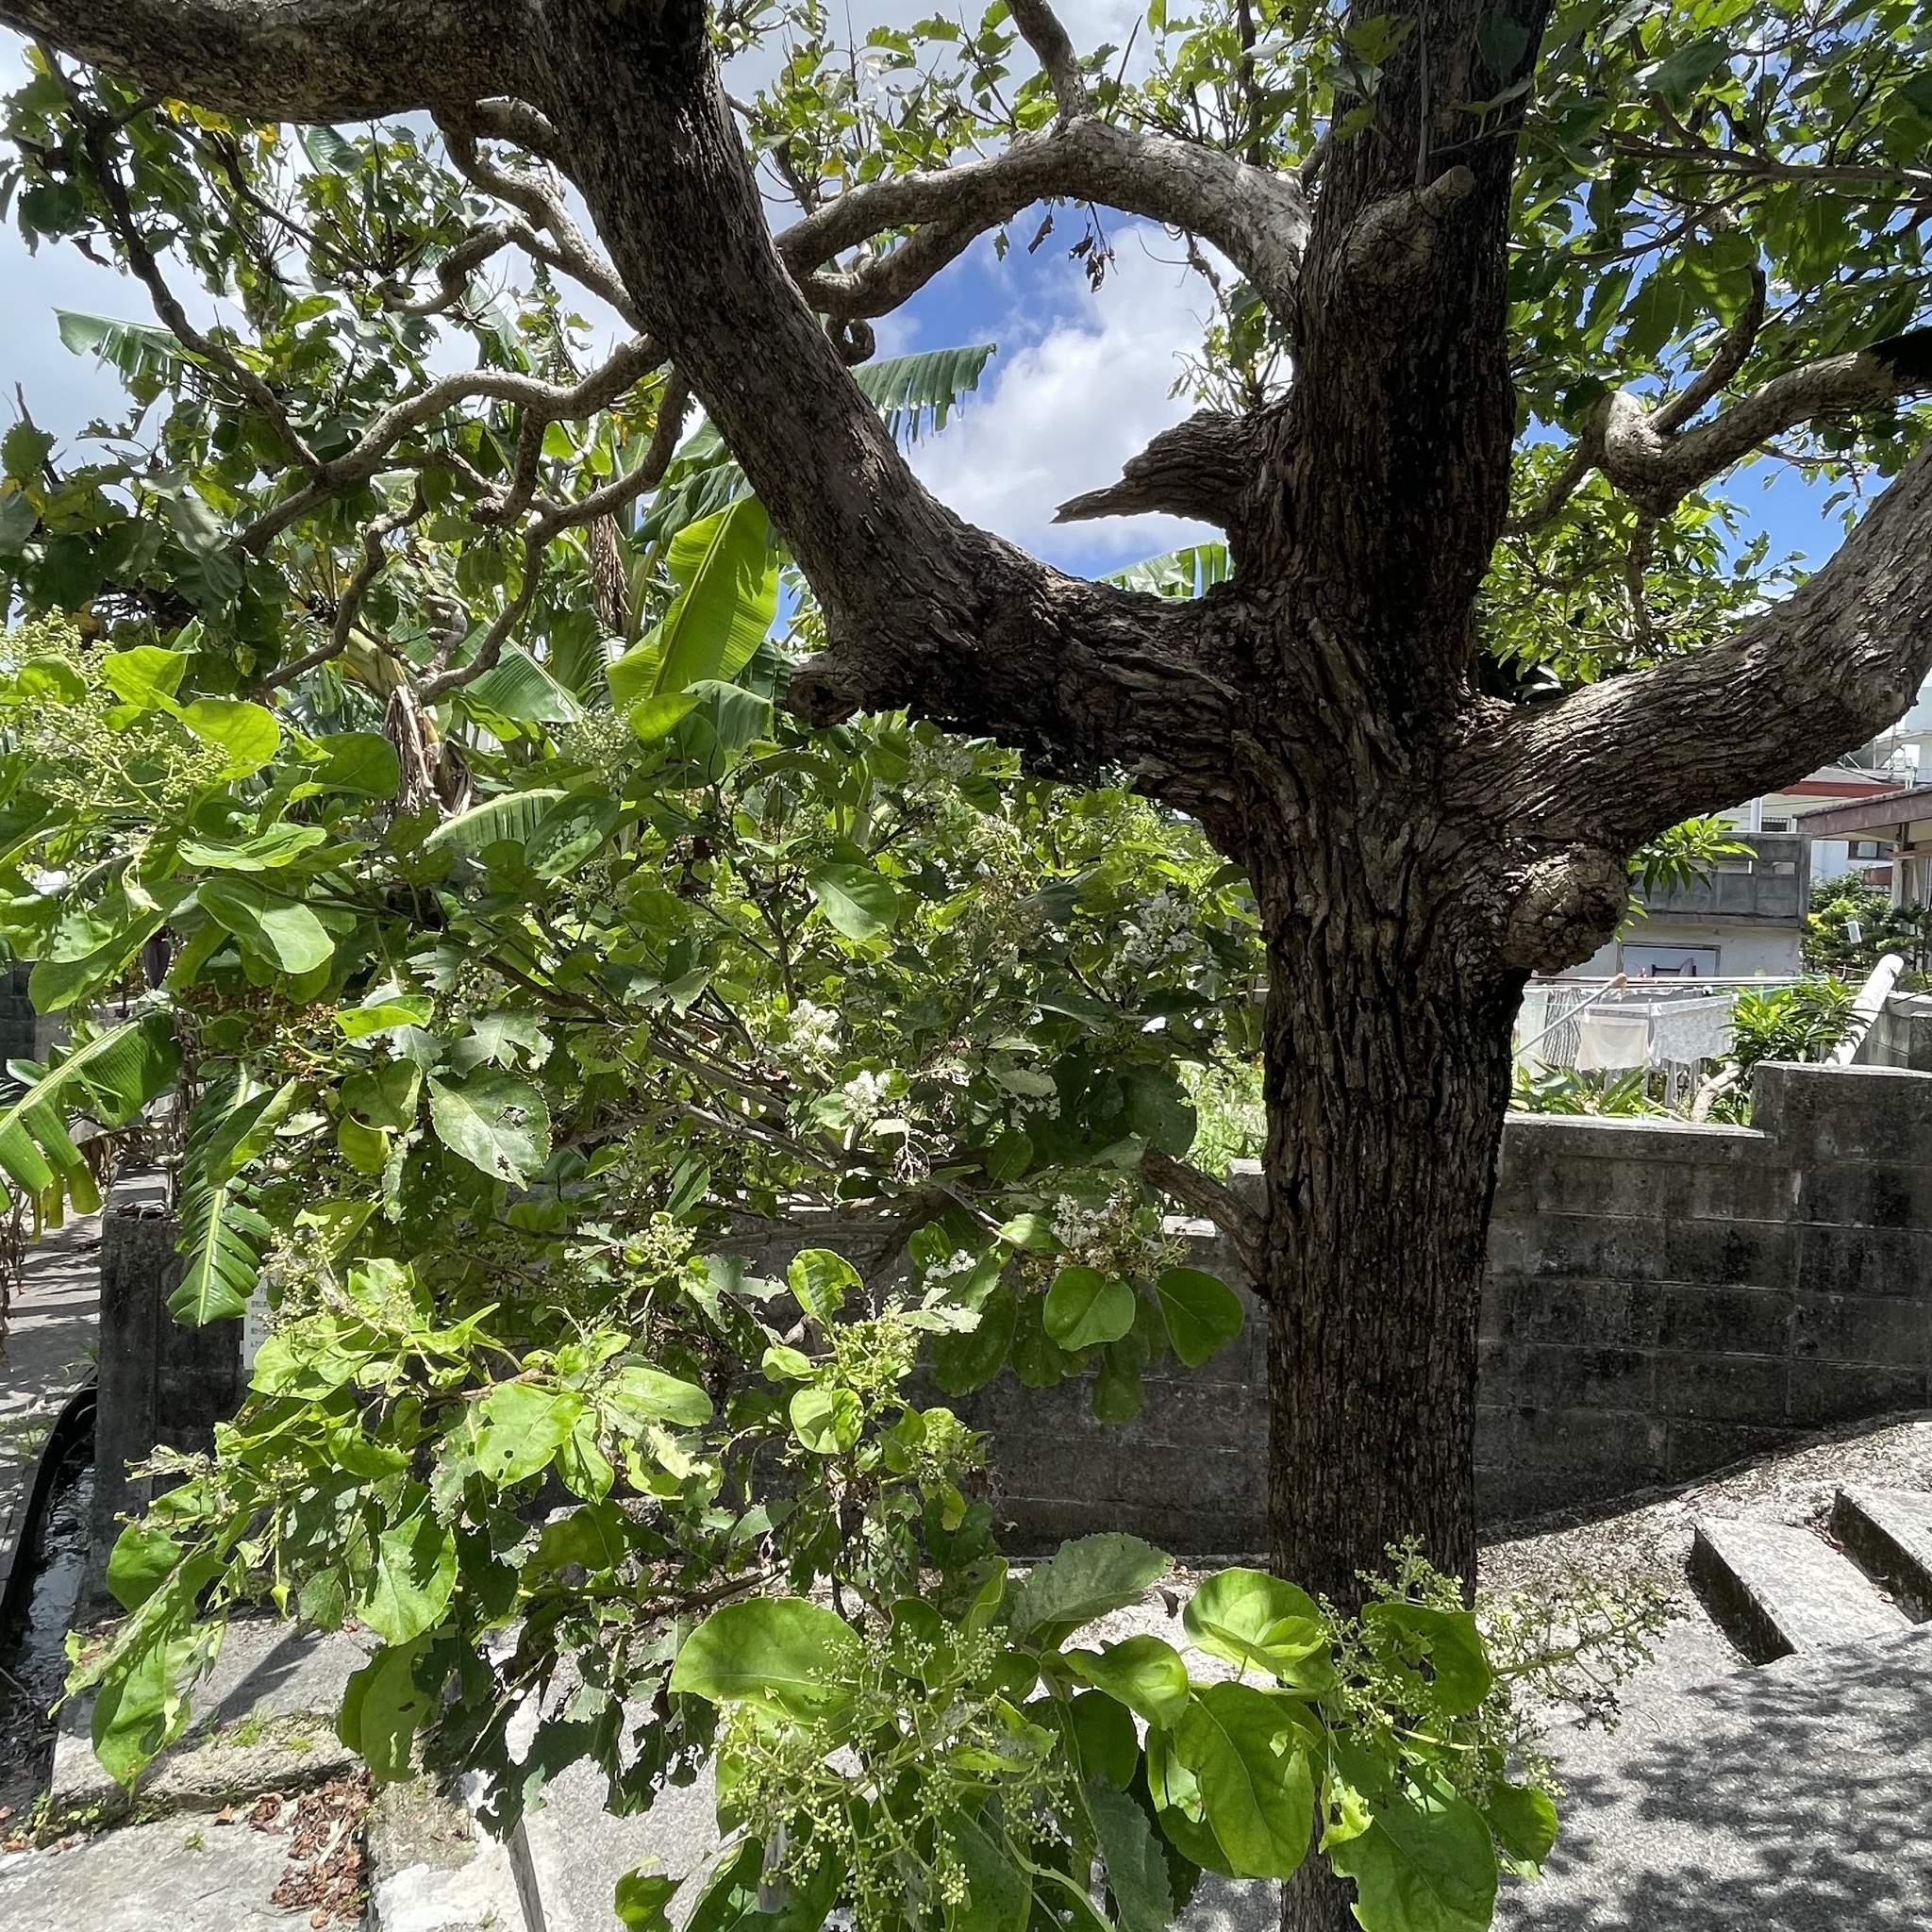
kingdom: Plantae
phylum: Tracheophyta
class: Magnoliopsida
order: Boraginales
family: Ehretiaceae
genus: Ehretia
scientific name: Ehretia acuminata
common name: Kodo wood
